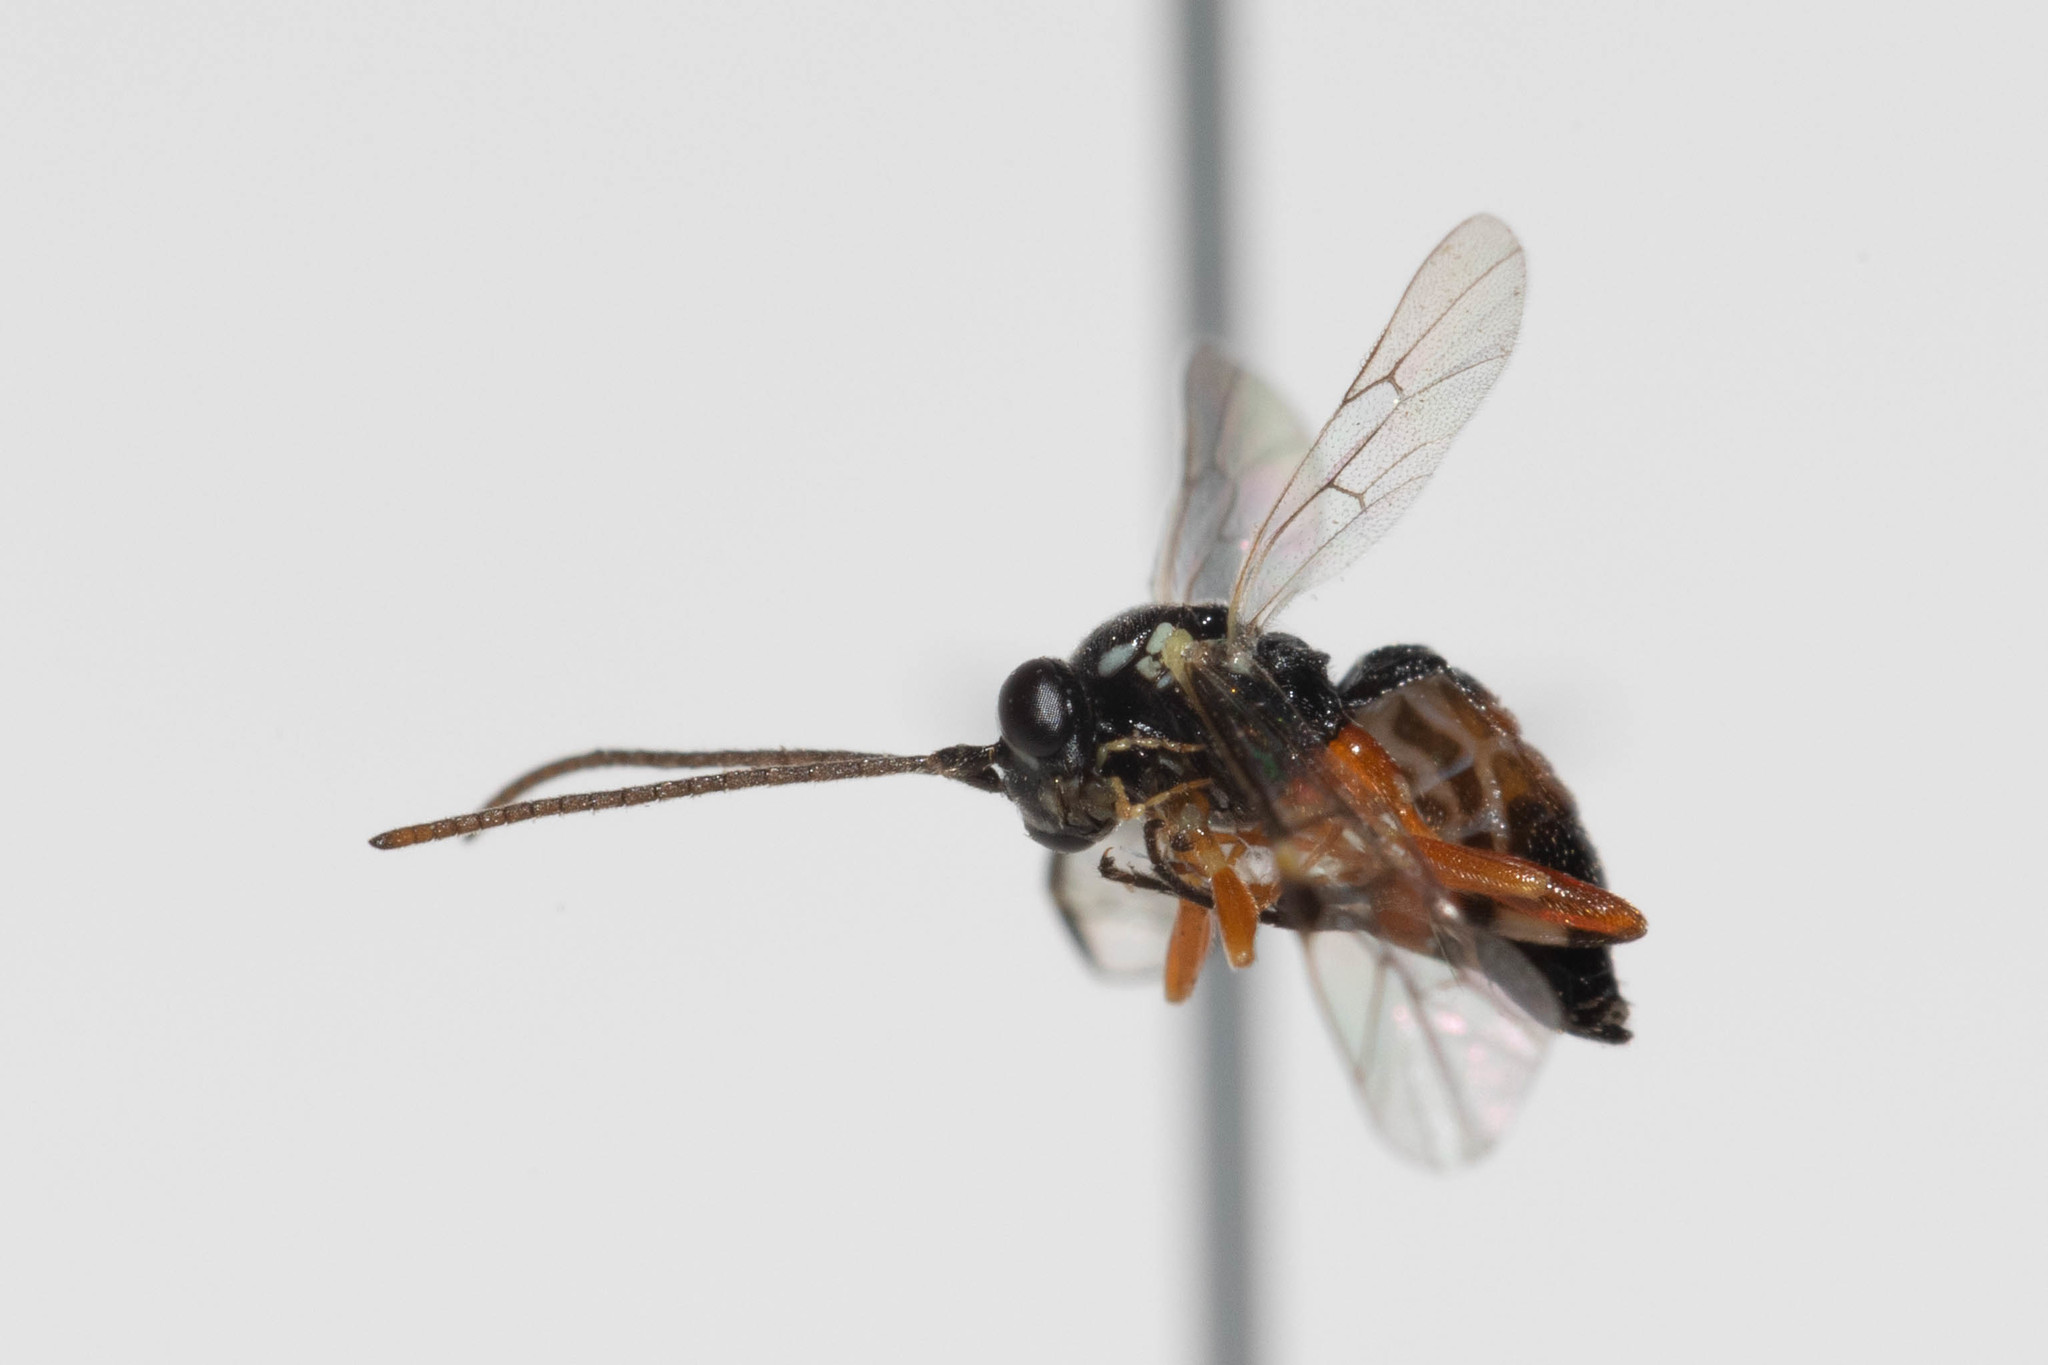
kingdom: Animalia
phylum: Arthropoda
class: Insecta
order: Hymenoptera
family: Ichneumonidae
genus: Diplazon
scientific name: Diplazon laetatorius
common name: Parasitoid wasp
